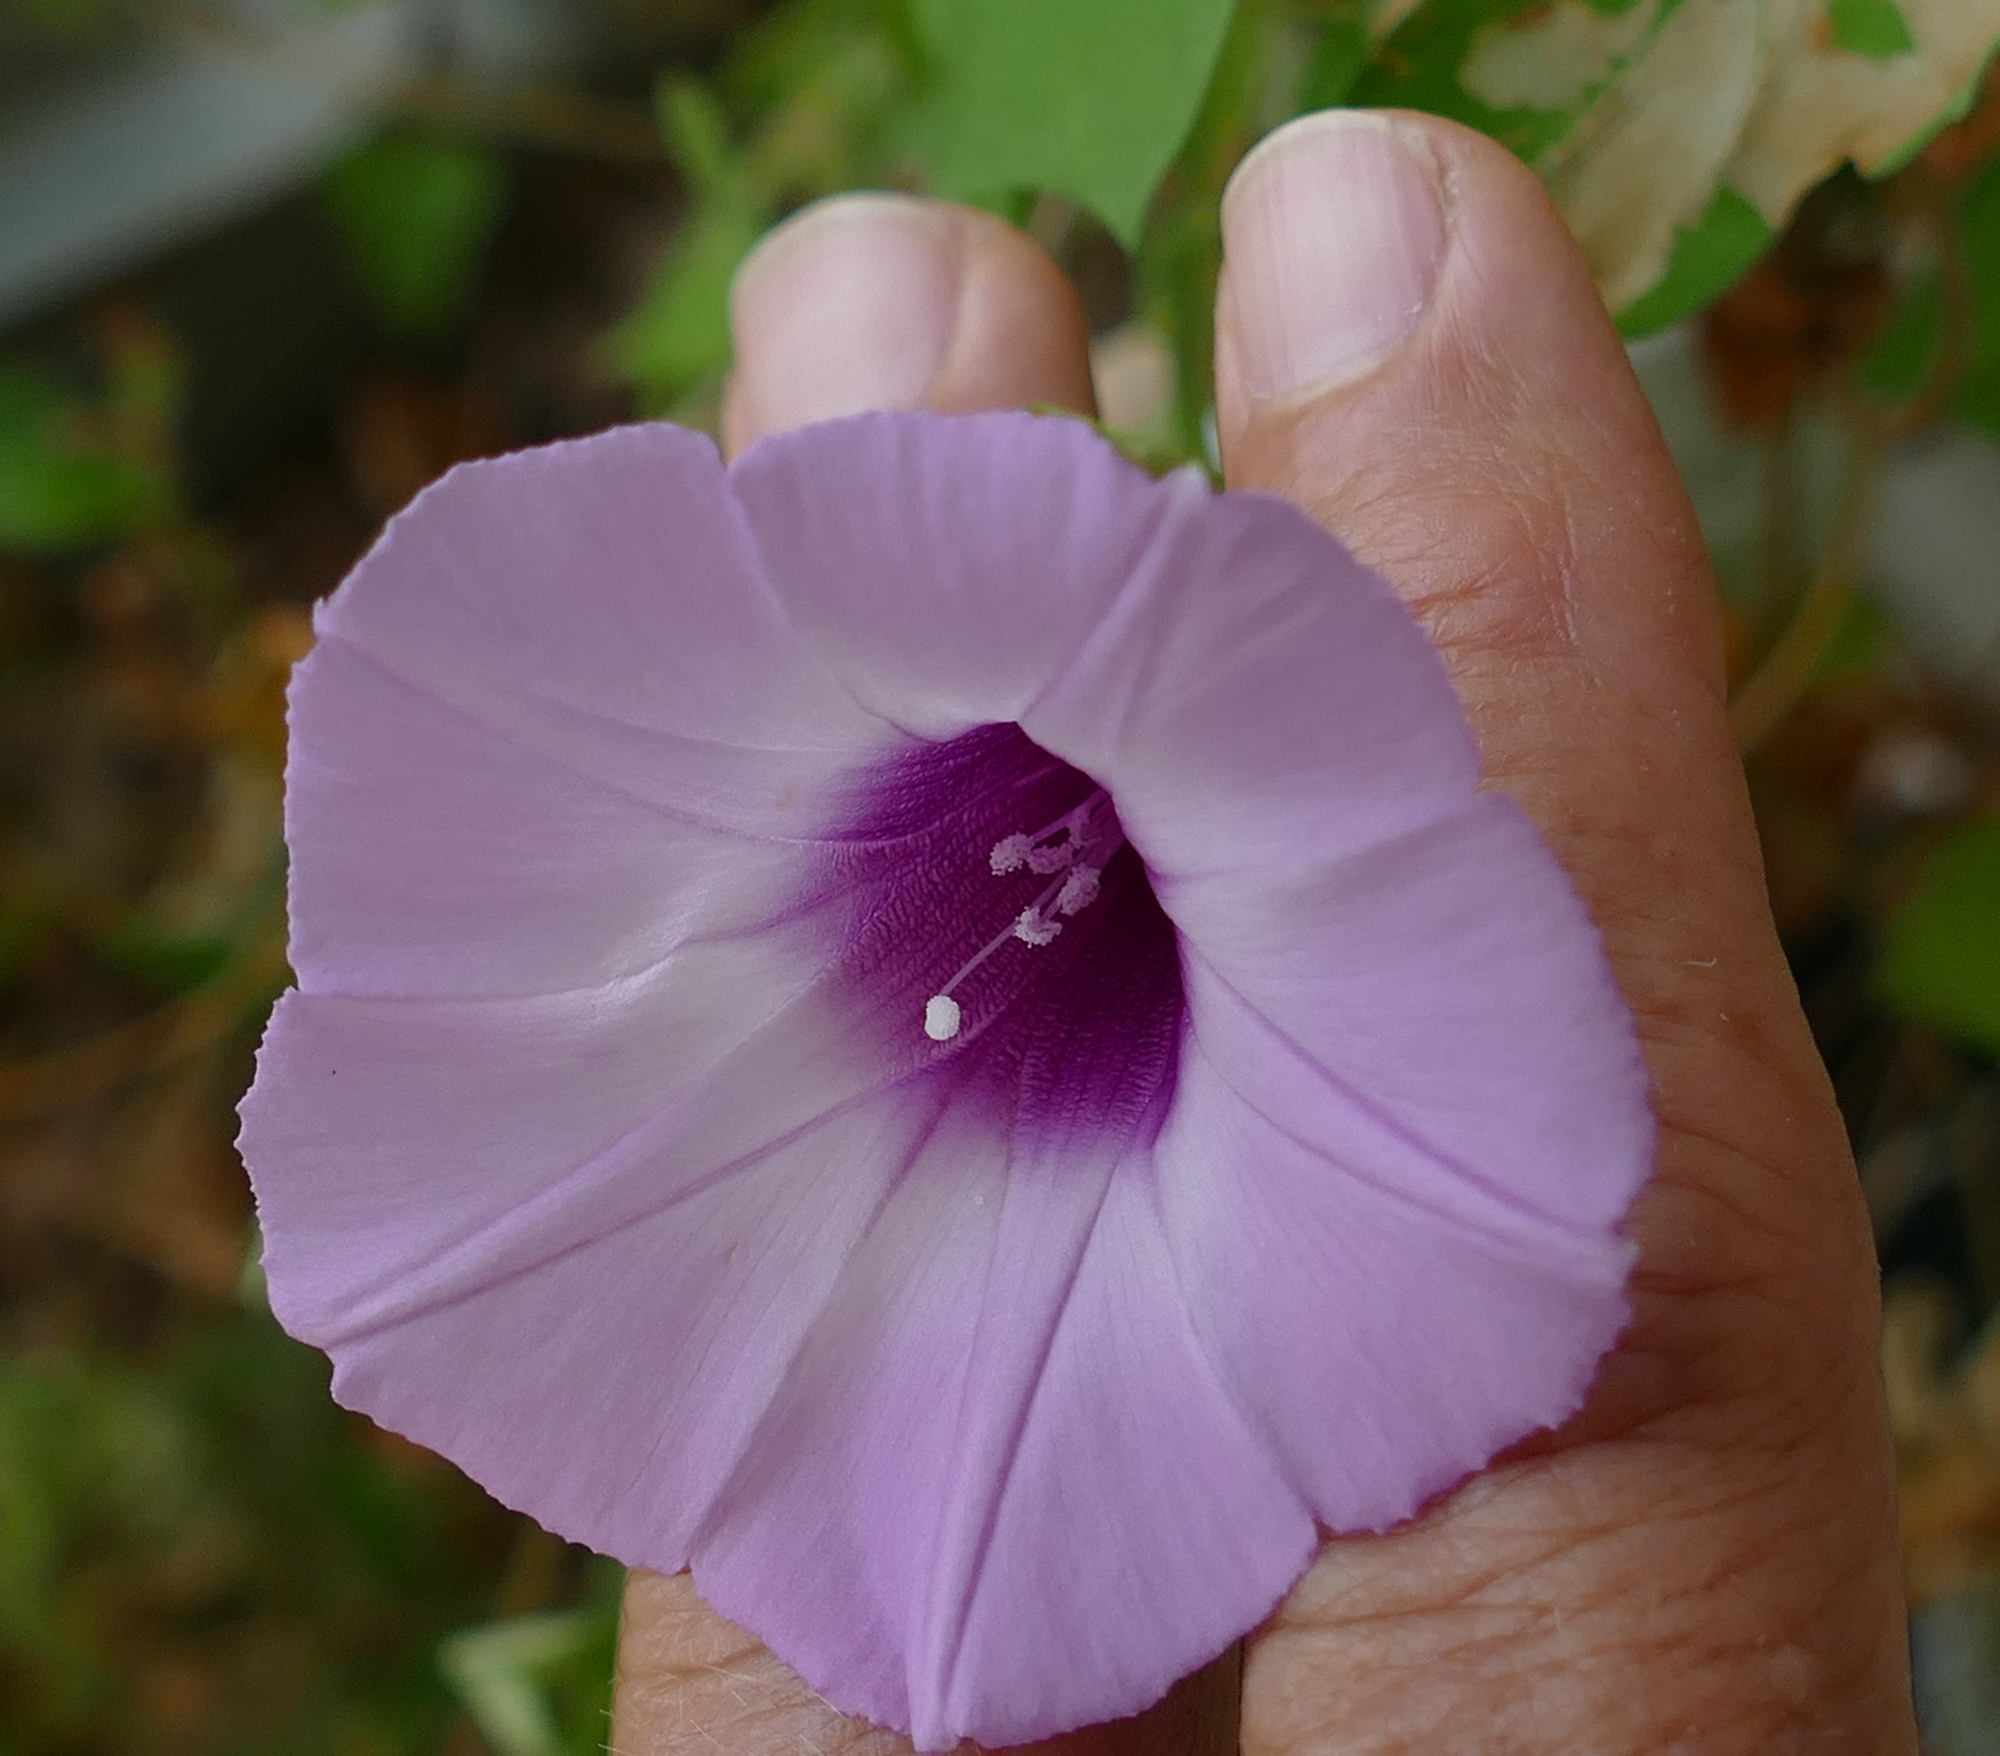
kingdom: Plantae
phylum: Tracheophyta
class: Magnoliopsida
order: Solanales
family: Convolvulaceae
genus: Ipomoea
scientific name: Ipomoea cordatotriloba
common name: Cotton morning glory
